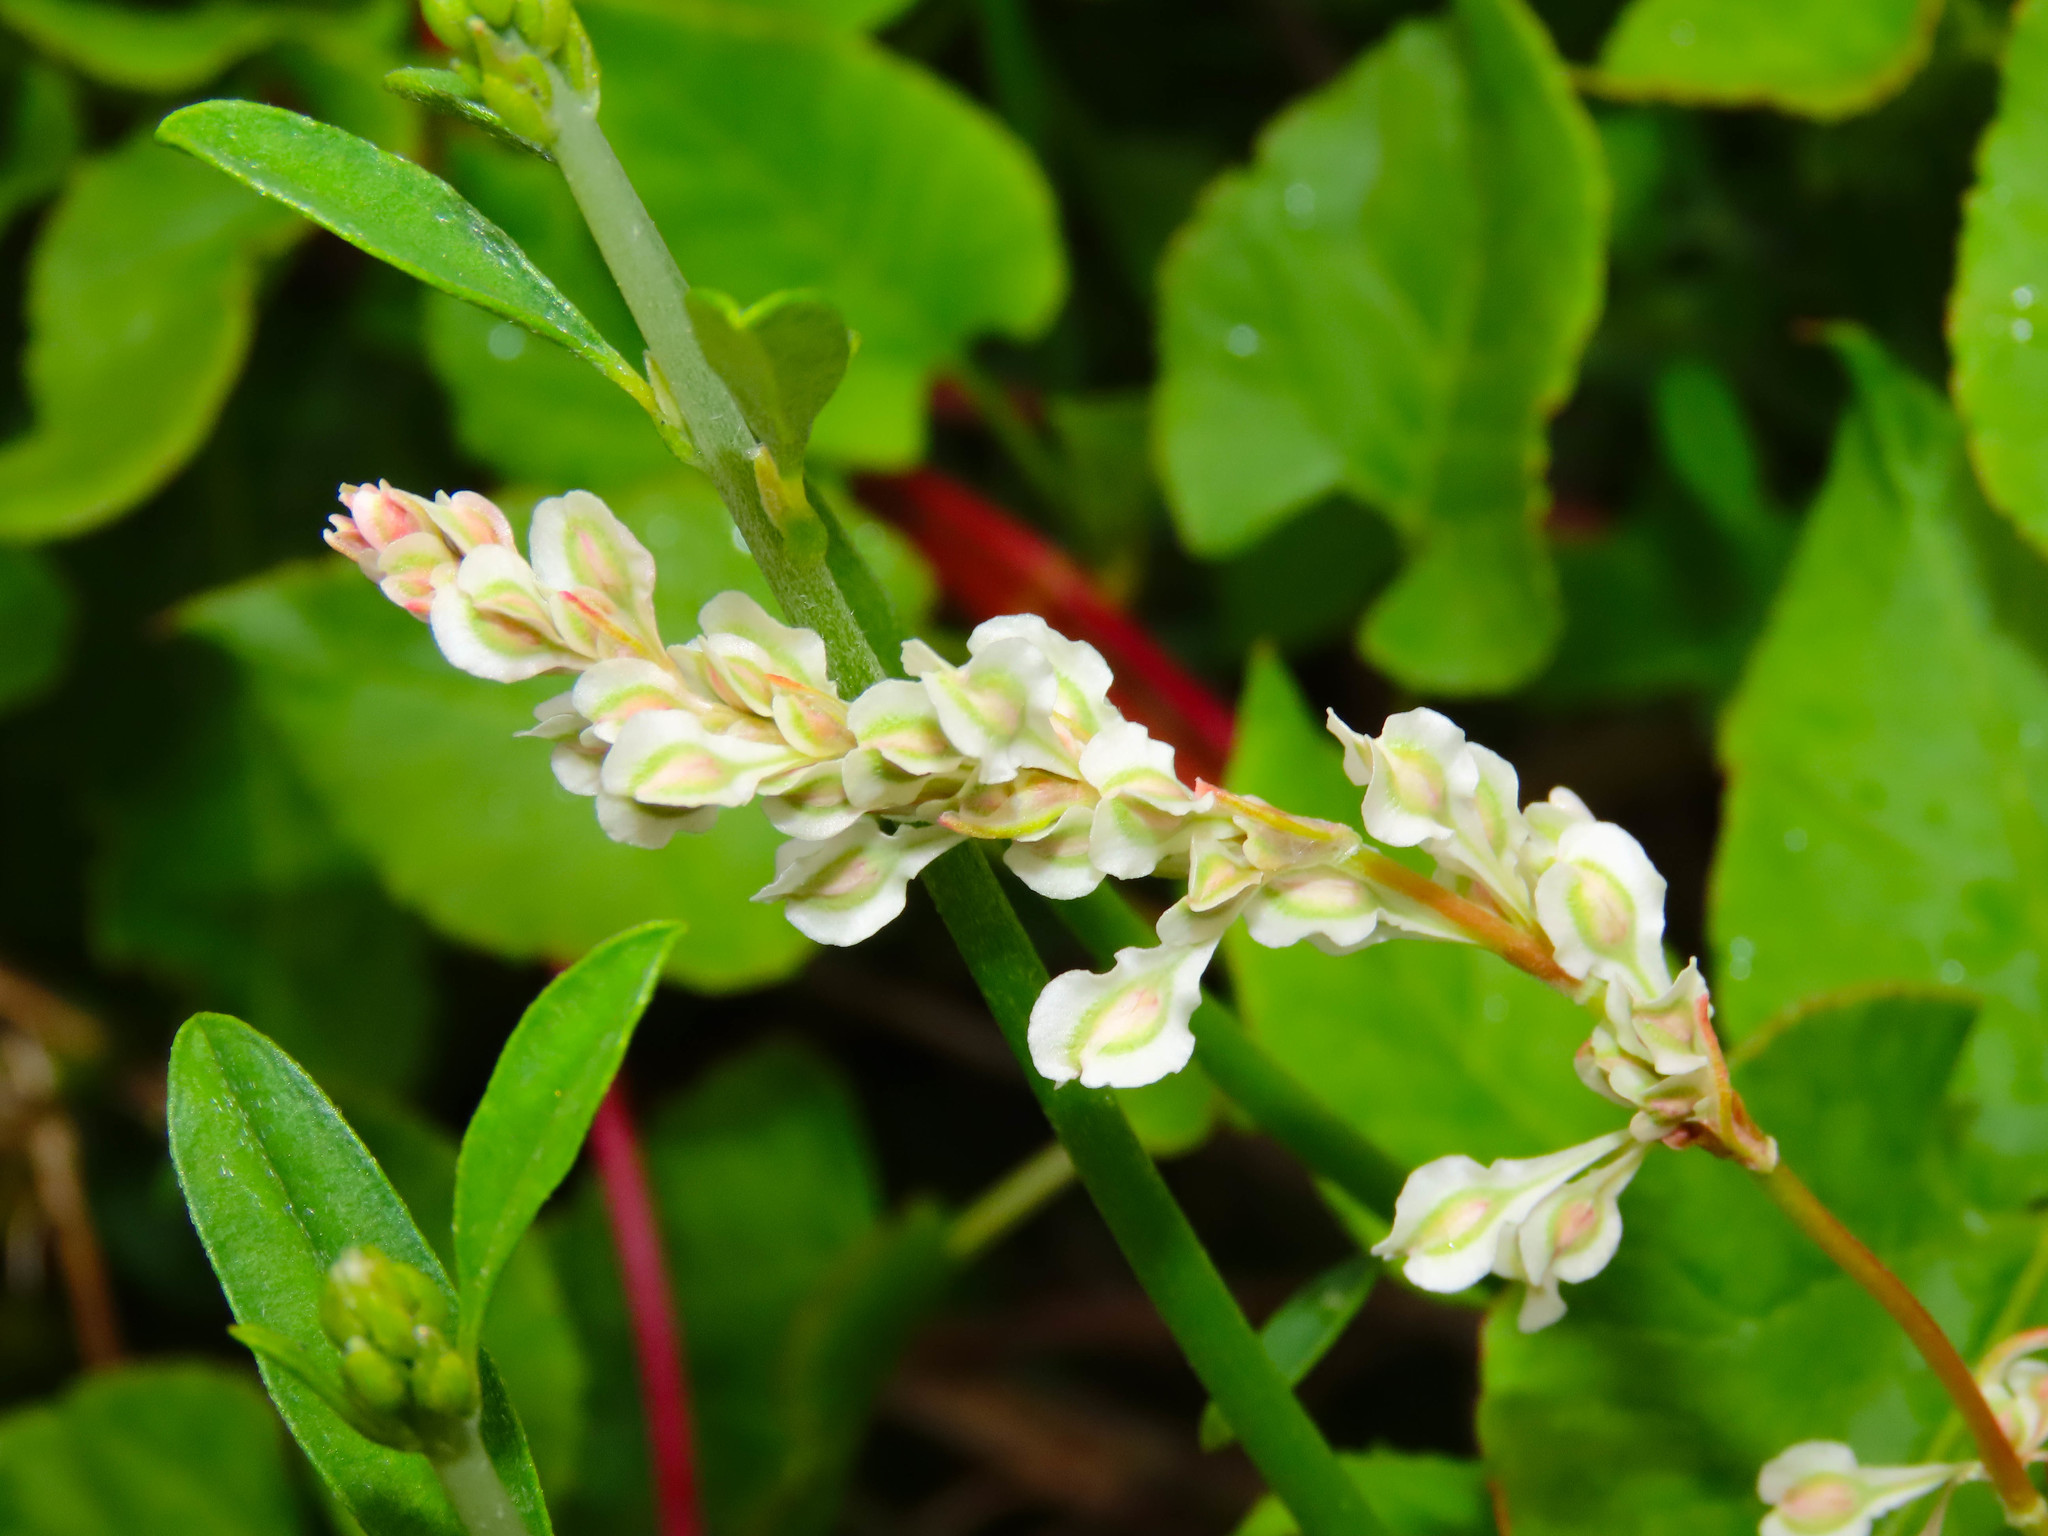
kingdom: Plantae
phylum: Tracheophyta
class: Magnoliopsida
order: Caryophyllales
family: Polygonaceae
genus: Fallopia
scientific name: Fallopia baldschuanica
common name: Russian-vine
